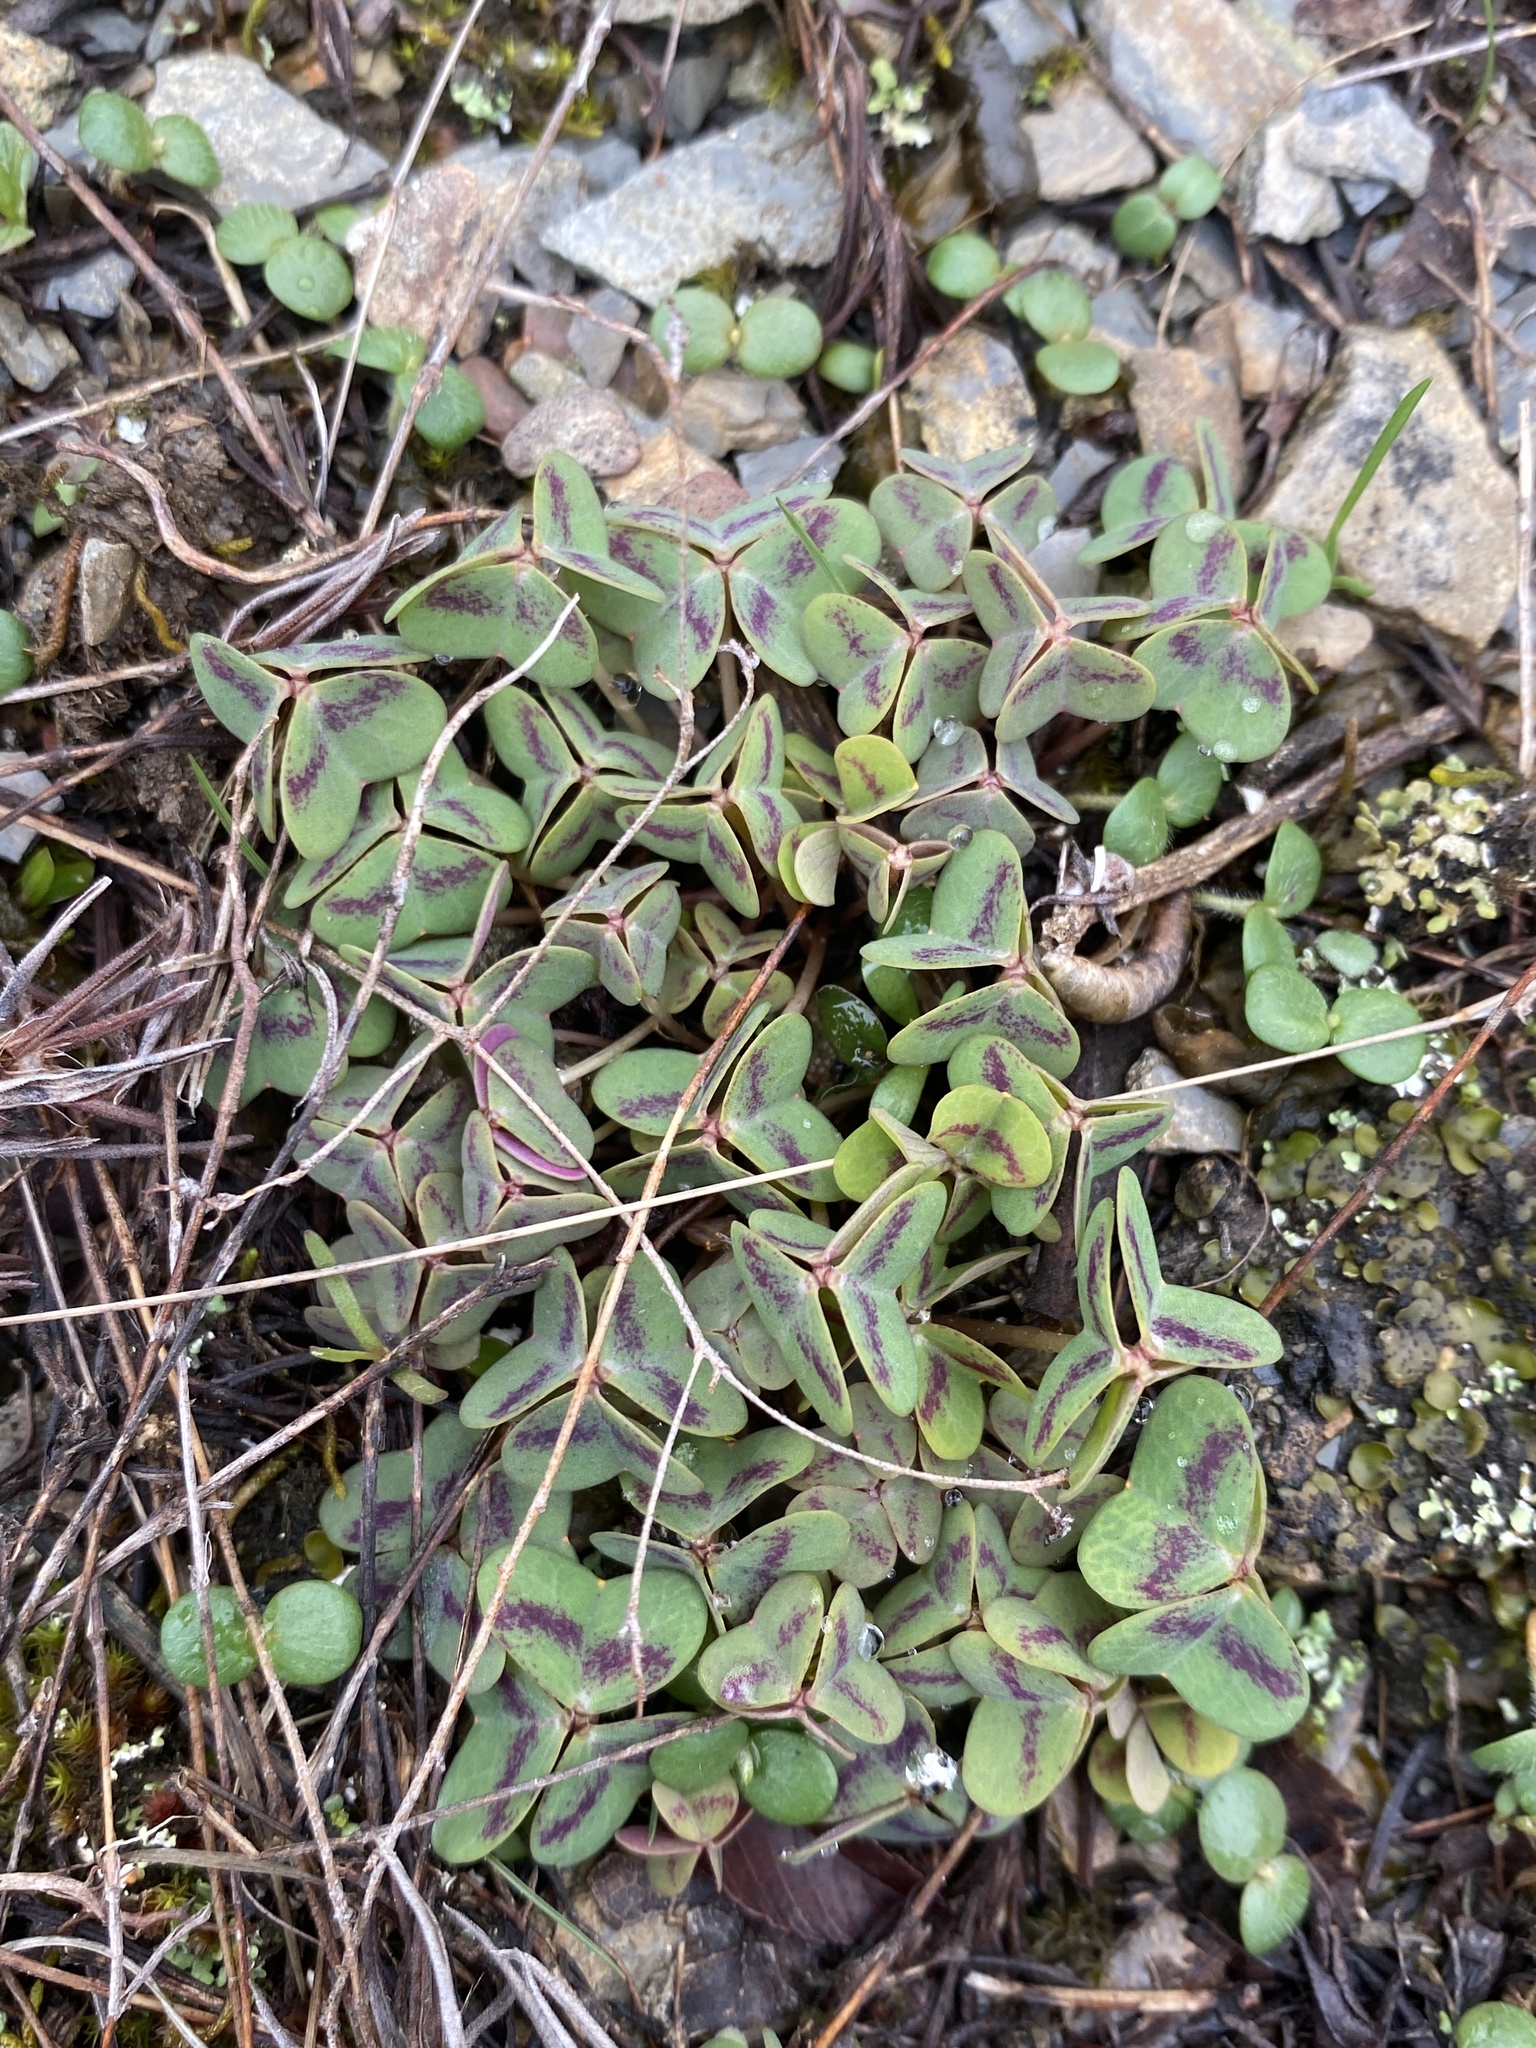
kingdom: Plantae
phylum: Tracheophyta
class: Magnoliopsida
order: Oxalidales
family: Oxalidaceae
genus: Oxalis
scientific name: Oxalis violacea
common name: Violet wood-sorrel
